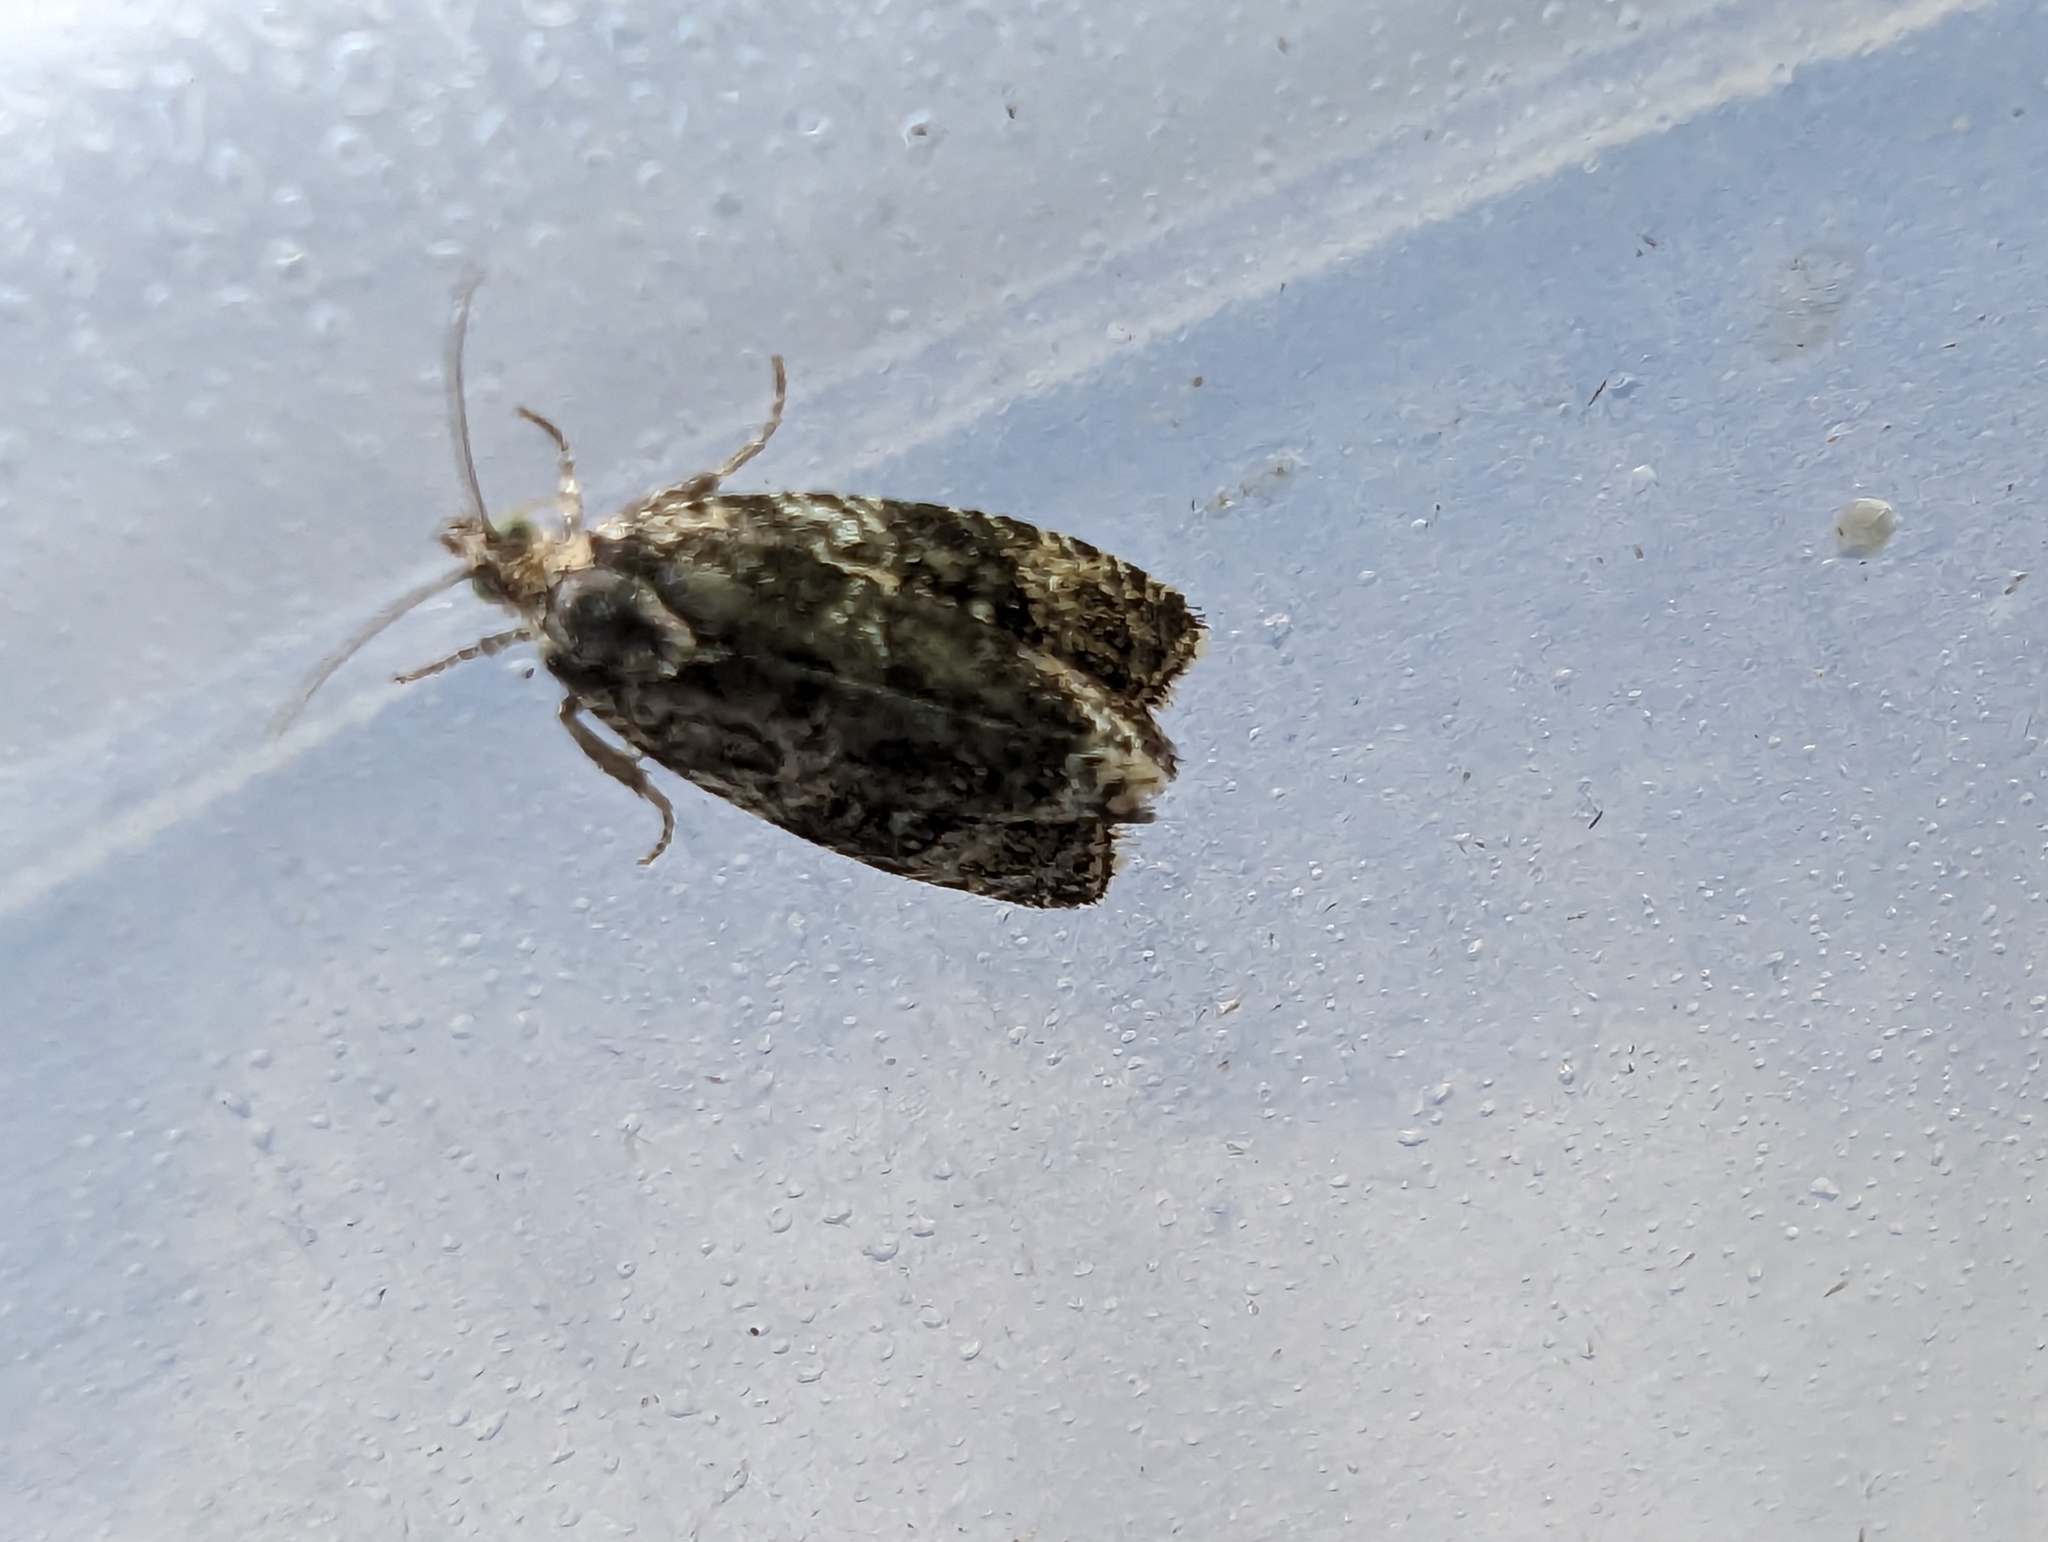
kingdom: Animalia
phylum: Arthropoda
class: Insecta
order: Lepidoptera
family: Tortricidae
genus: Syricoris
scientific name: Syricoris lacunana
